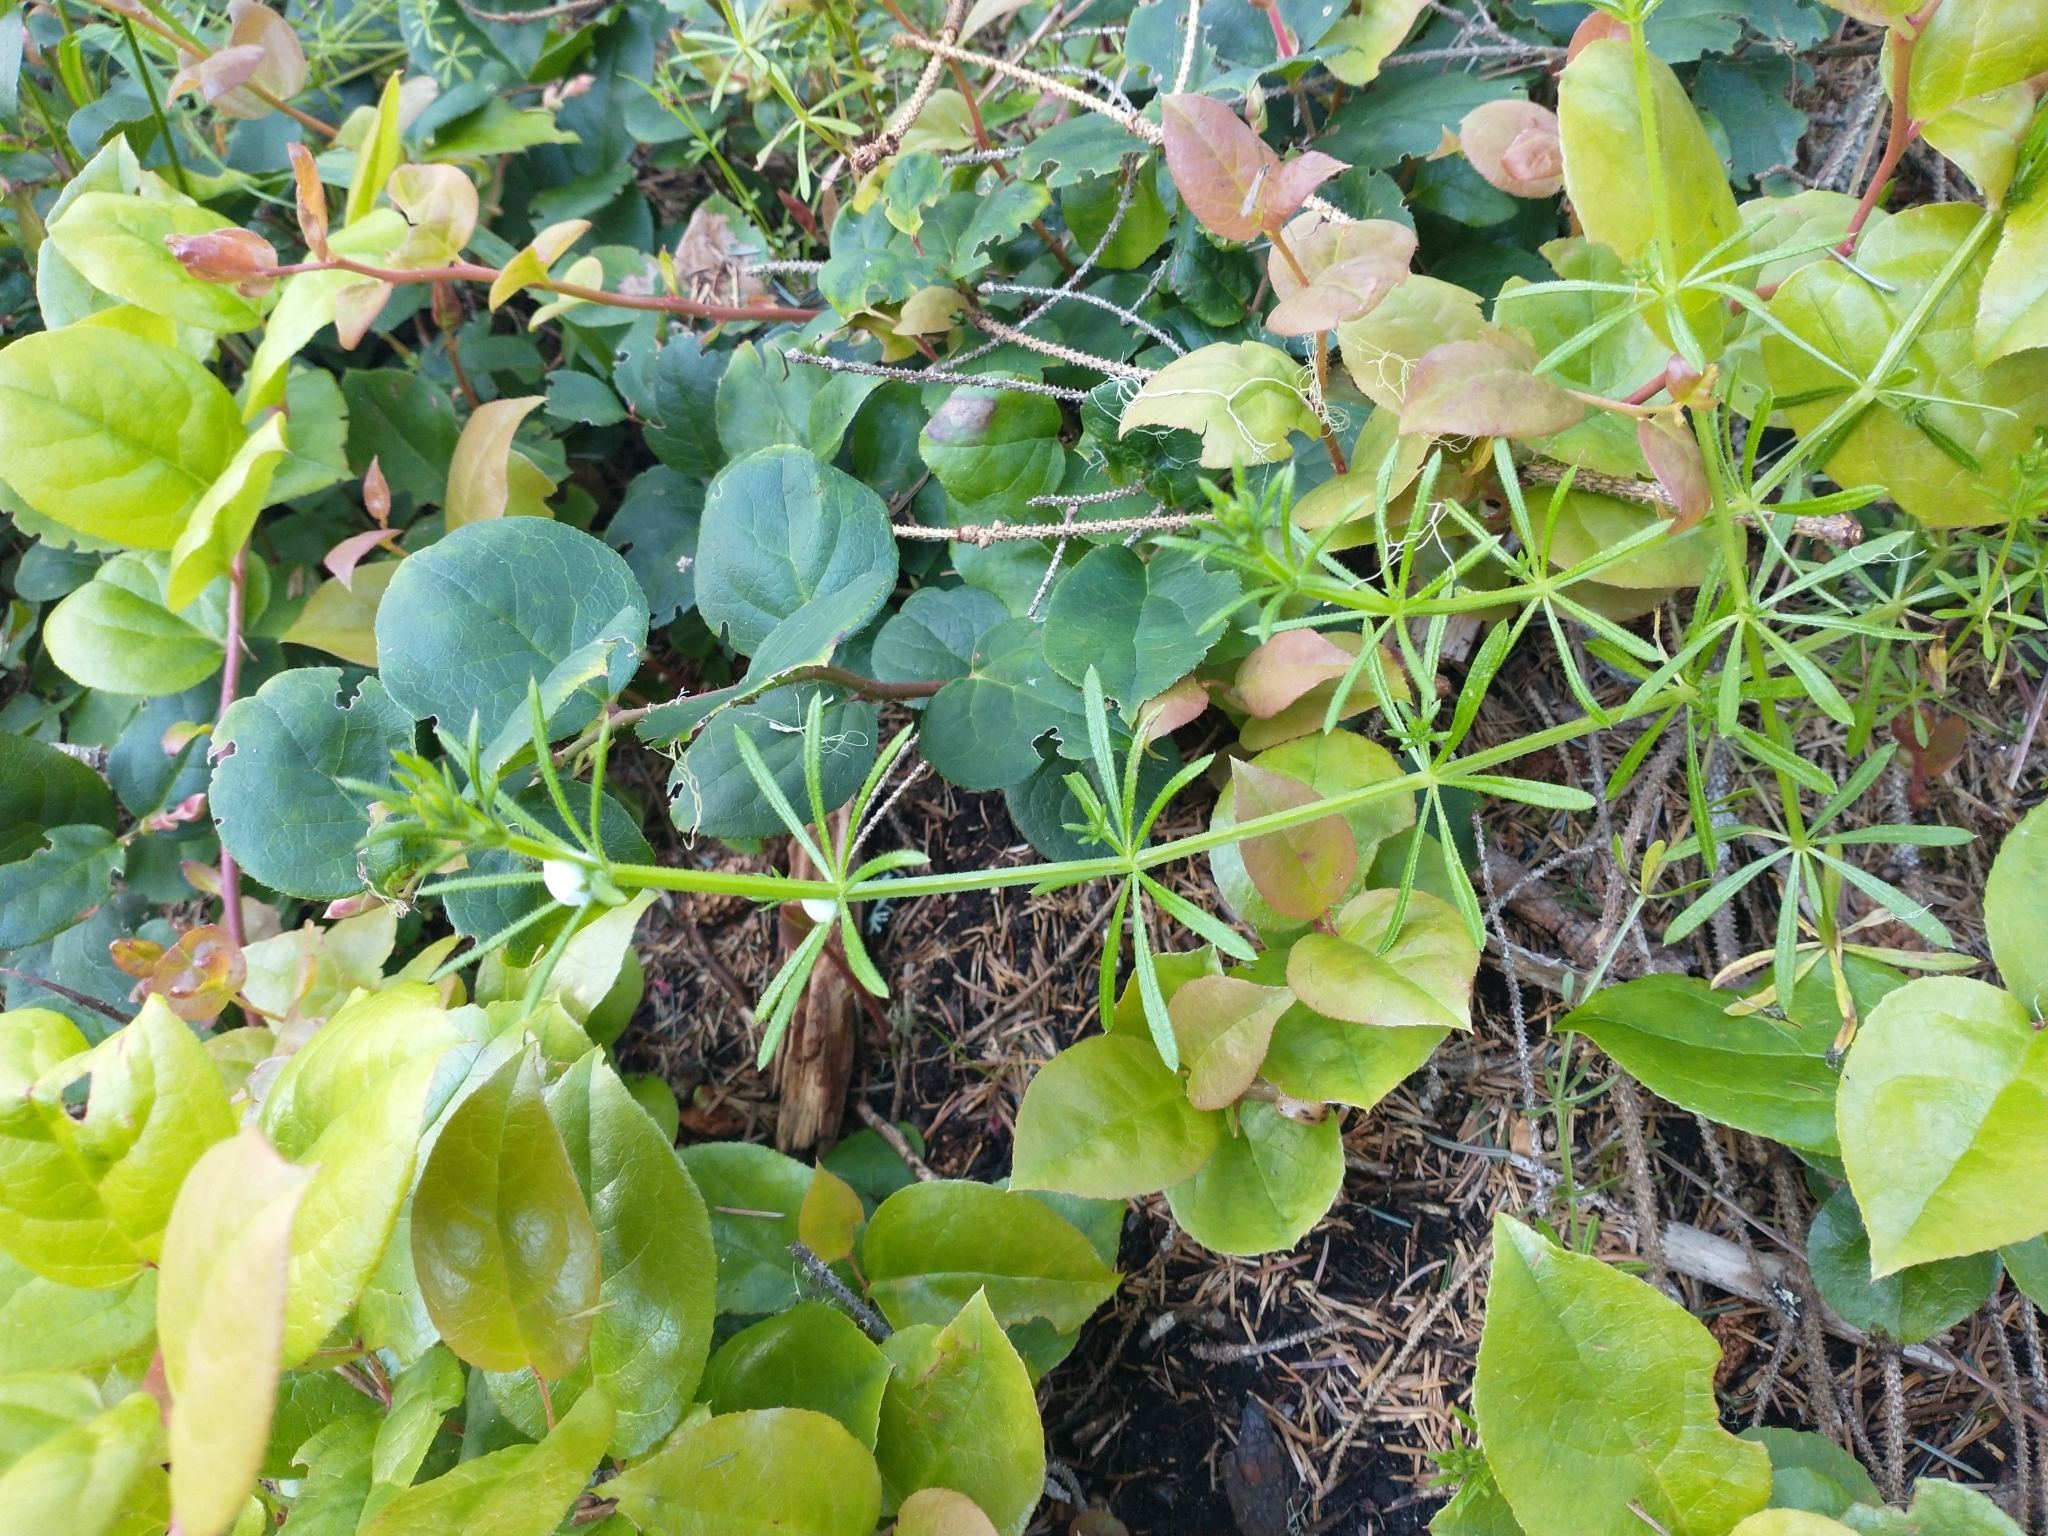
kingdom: Plantae
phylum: Tracheophyta
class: Magnoliopsida
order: Ericales
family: Ericaceae
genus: Gaultheria
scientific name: Gaultheria shallon
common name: Shallon
